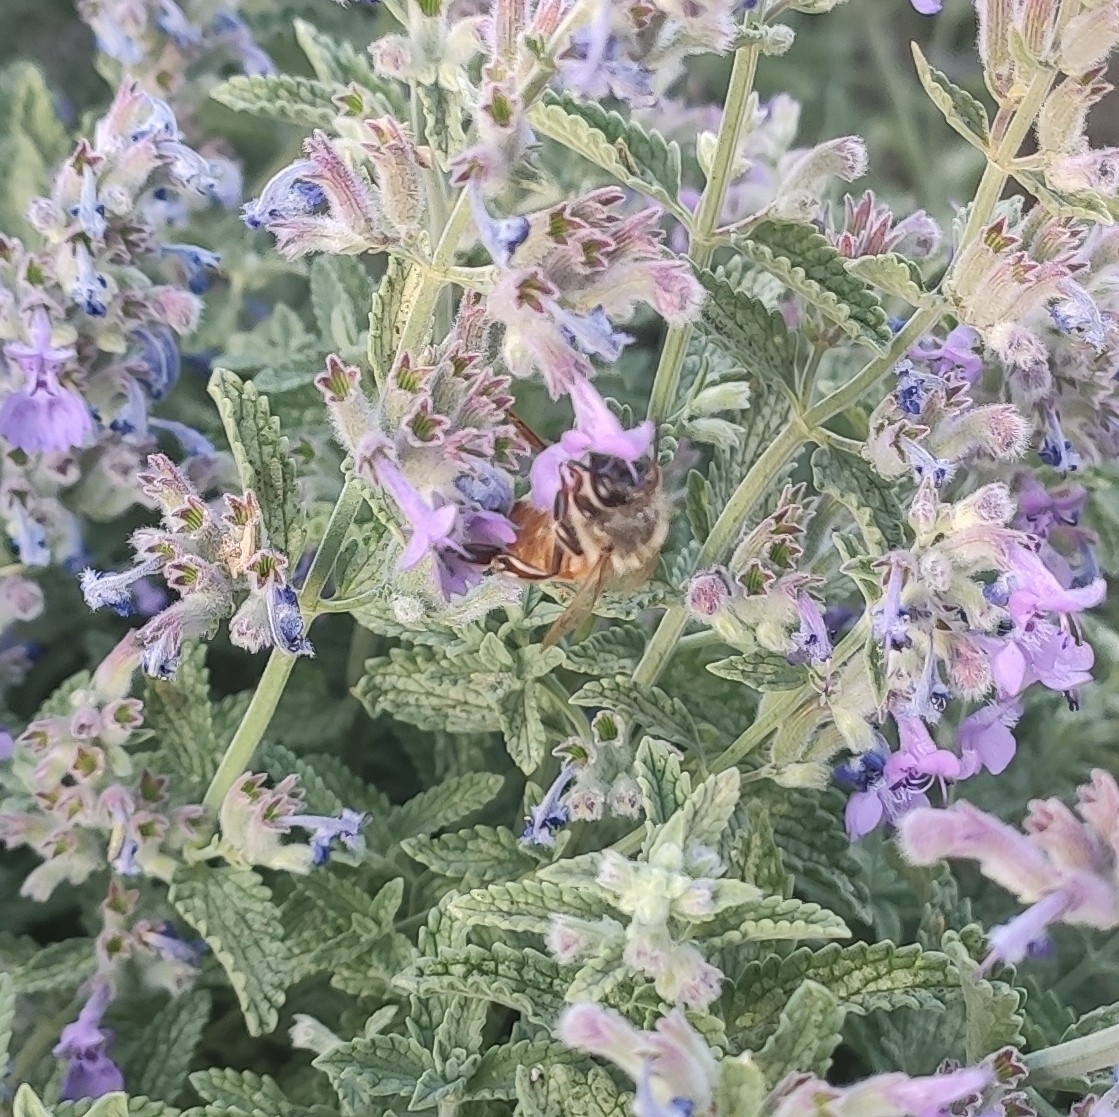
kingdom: Animalia
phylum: Arthropoda
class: Insecta
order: Hymenoptera
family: Apidae
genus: Apis
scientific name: Apis mellifera
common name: Honey bee
